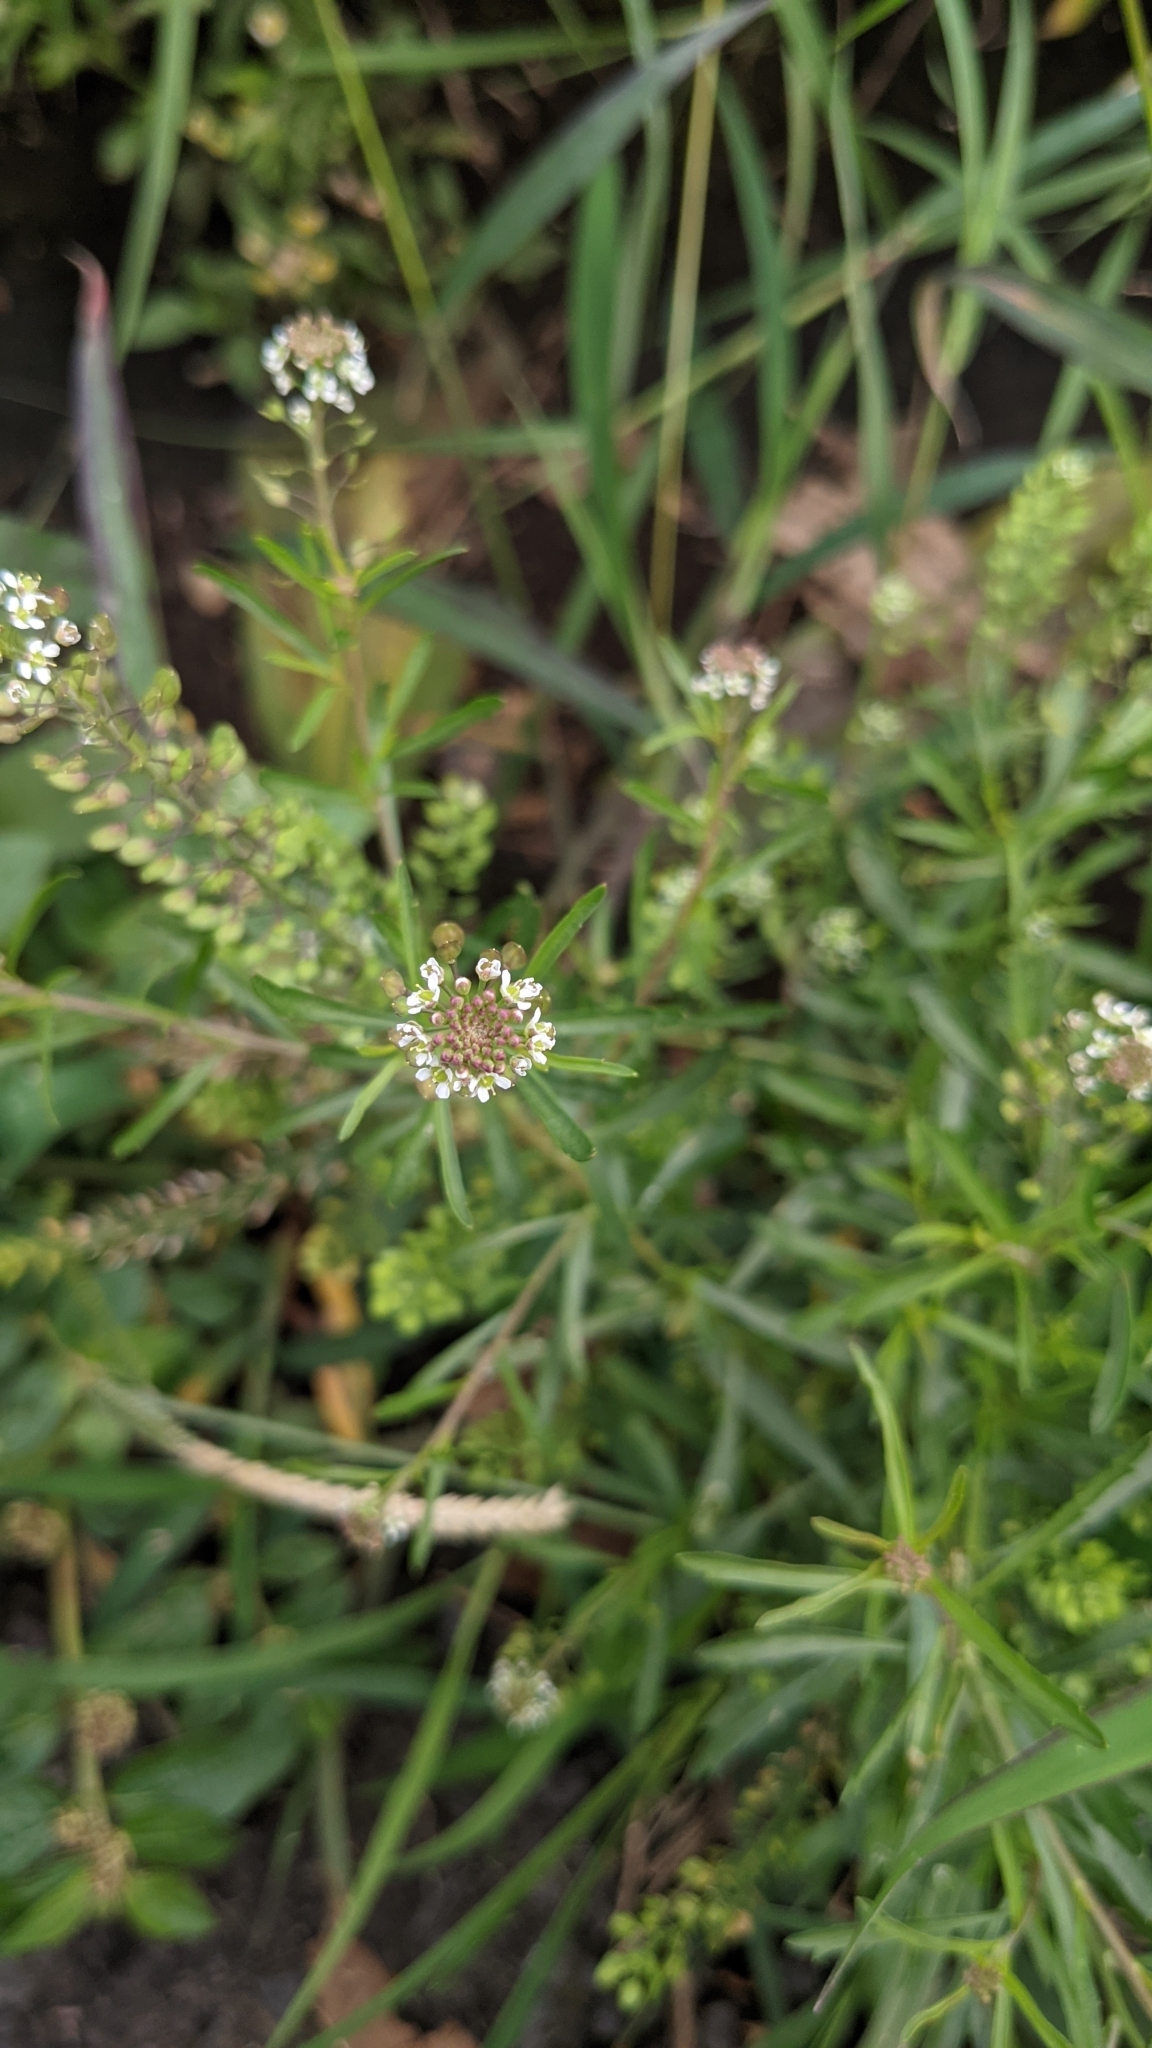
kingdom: Plantae
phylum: Tracheophyta
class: Magnoliopsida
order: Brassicales
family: Brassicaceae
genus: Lepidium
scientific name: Lepidium virginicum
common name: Least pepperwort
